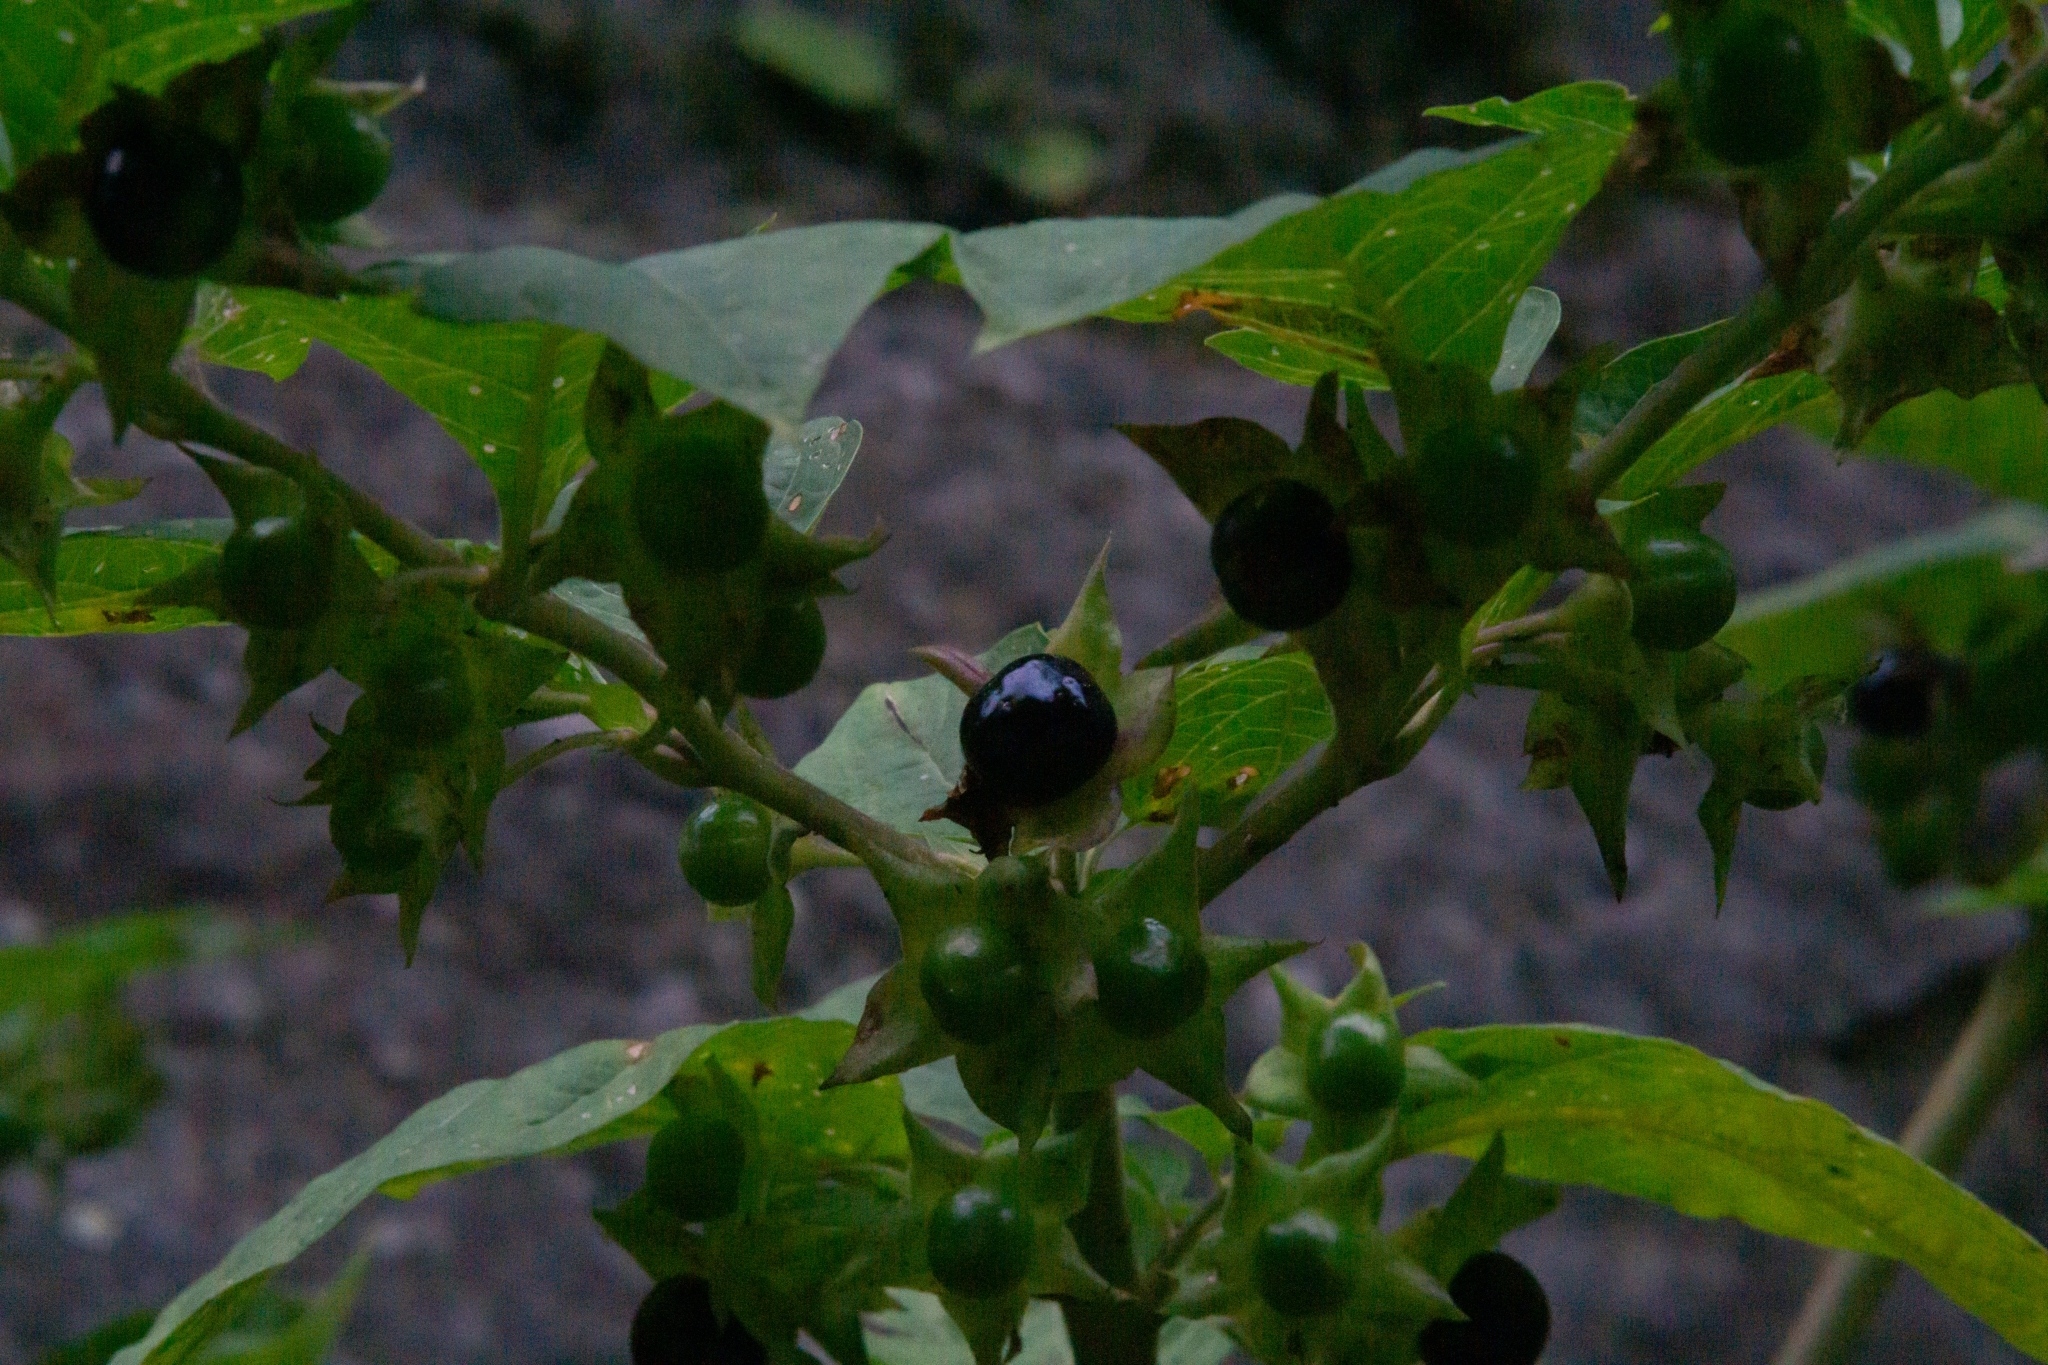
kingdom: Plantae
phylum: Tracheophyta
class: Magnoliopsida
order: Solanales
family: Solanaceae
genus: Atropa
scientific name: Atropa belladonna
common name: Deadly nightshade
